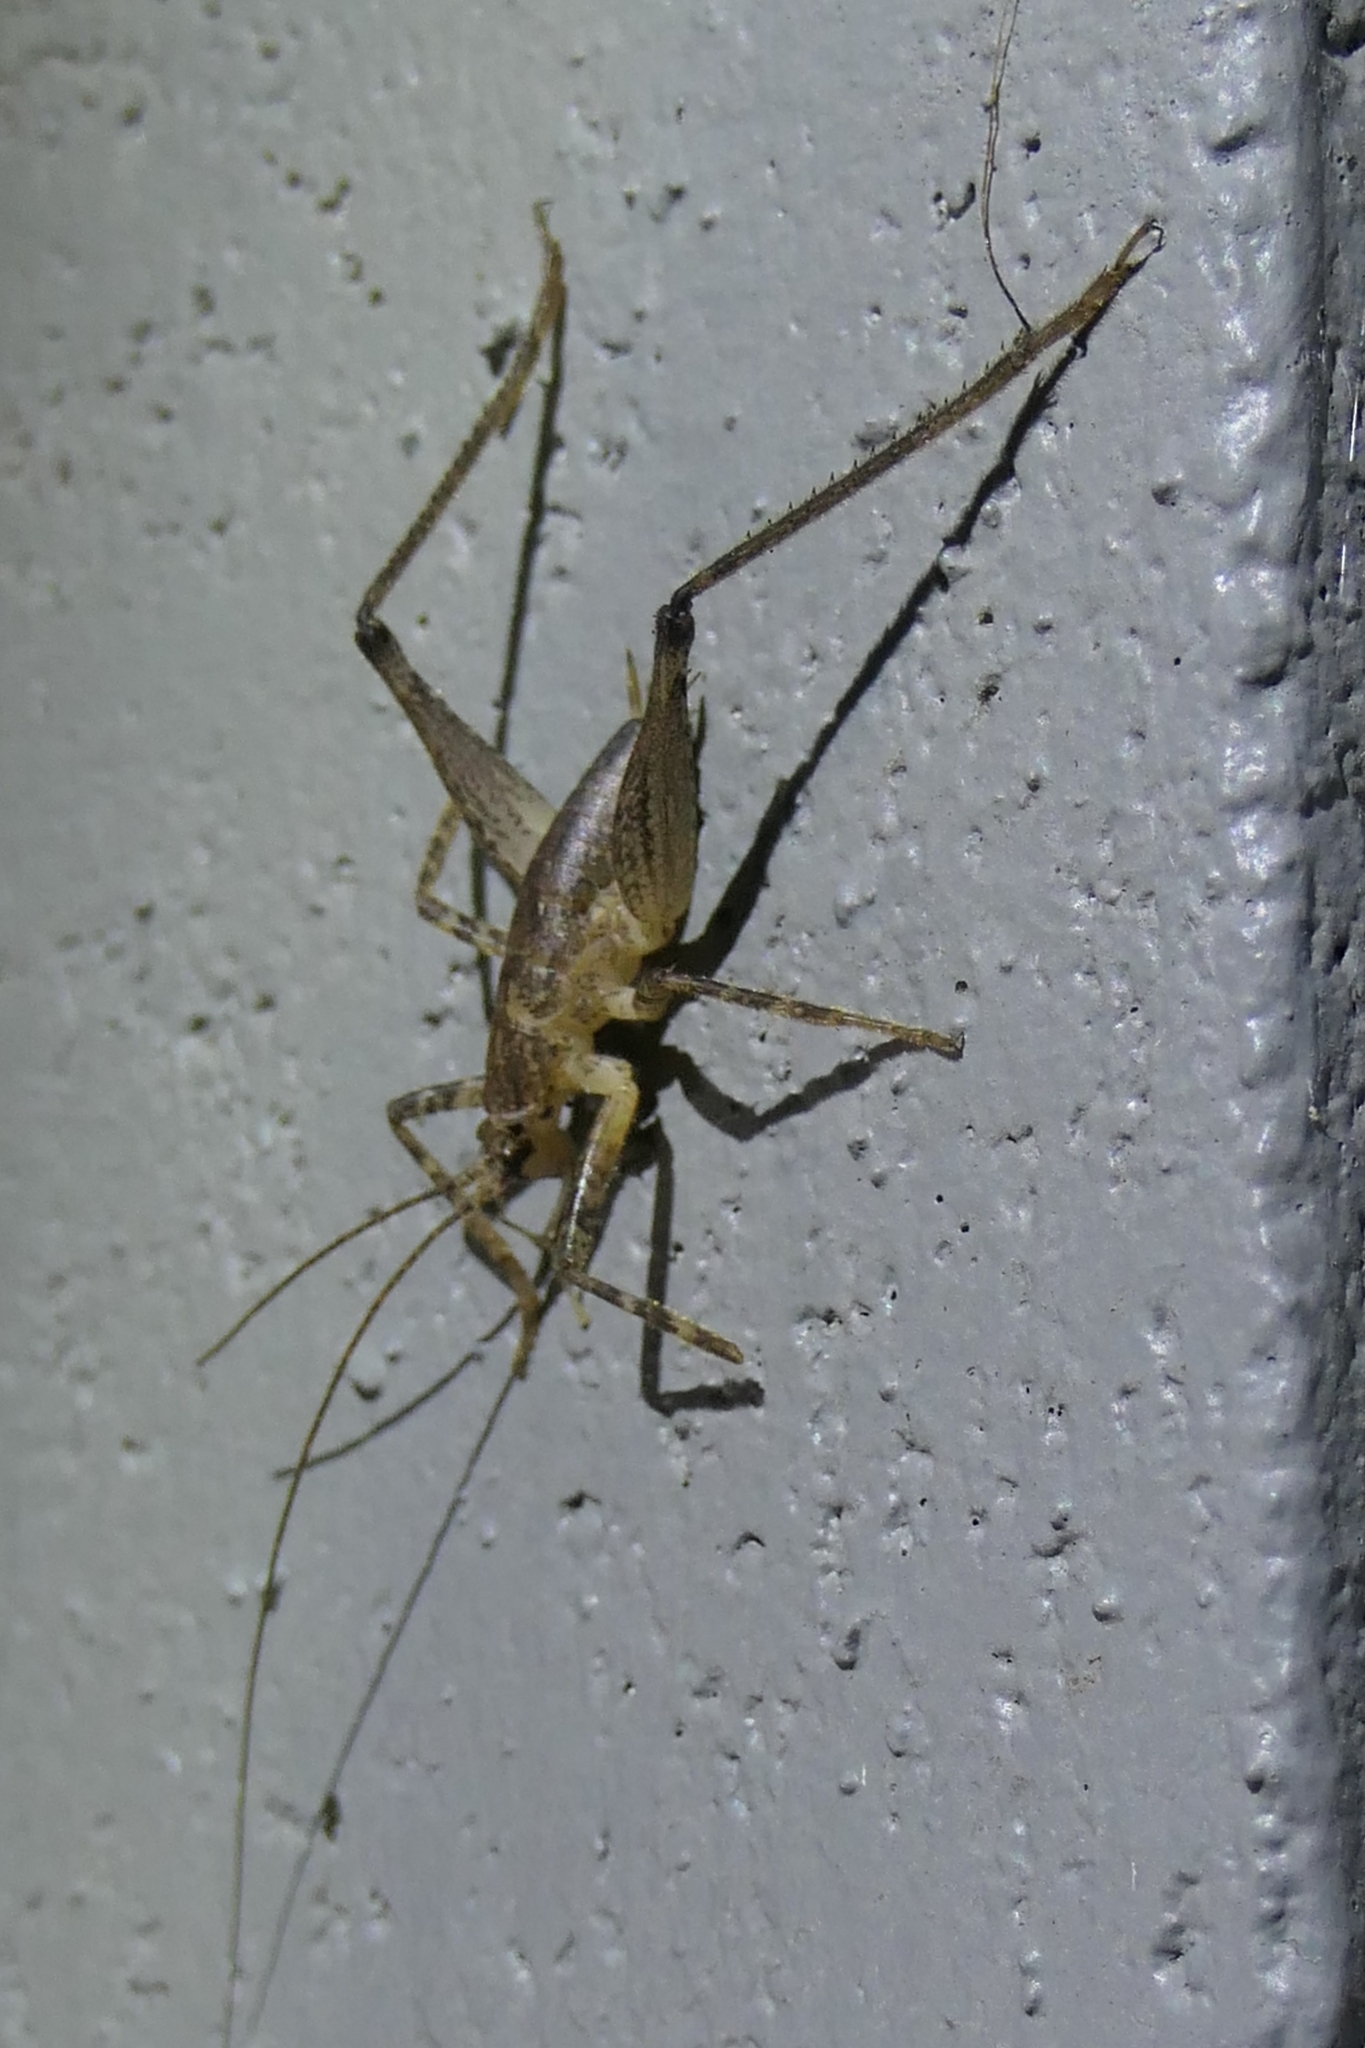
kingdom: Animalia
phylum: Arthropoda
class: Insecta
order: Orthoptera
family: Rhaphidophoridae
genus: Isoplectron
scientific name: Isoplectron armatum
